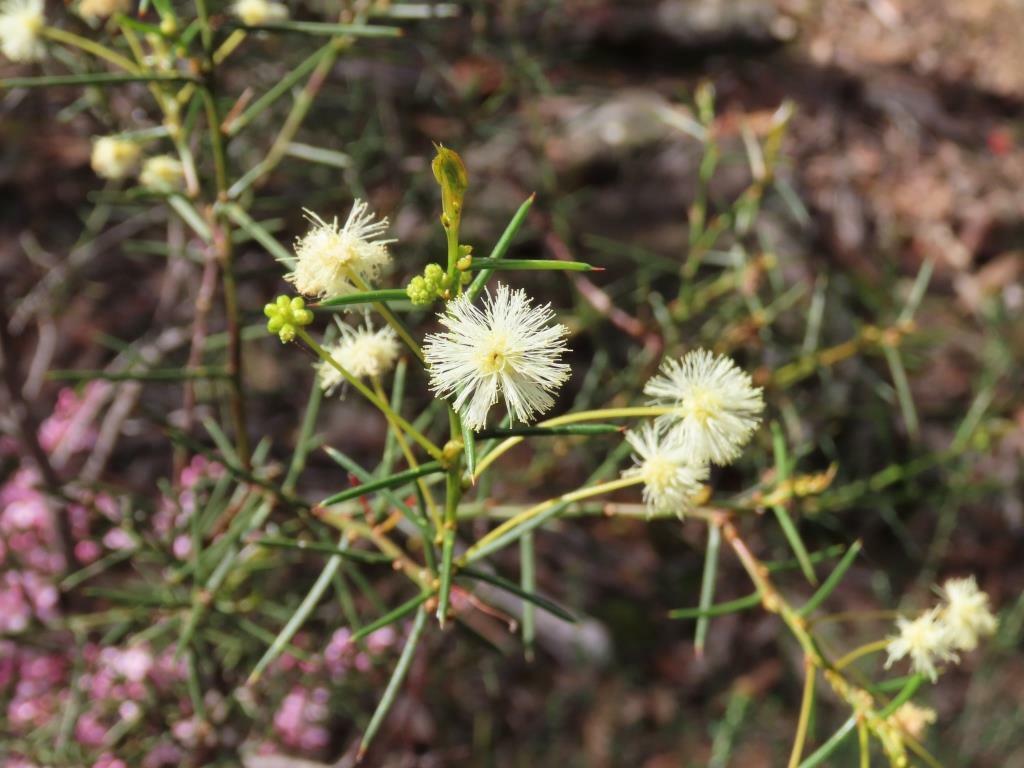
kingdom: Plantae
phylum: Tracheophyta
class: Magnoliopsida
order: Fabales
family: Fabaceae
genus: Acacia
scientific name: Acacia genistifolia
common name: Early wattle
